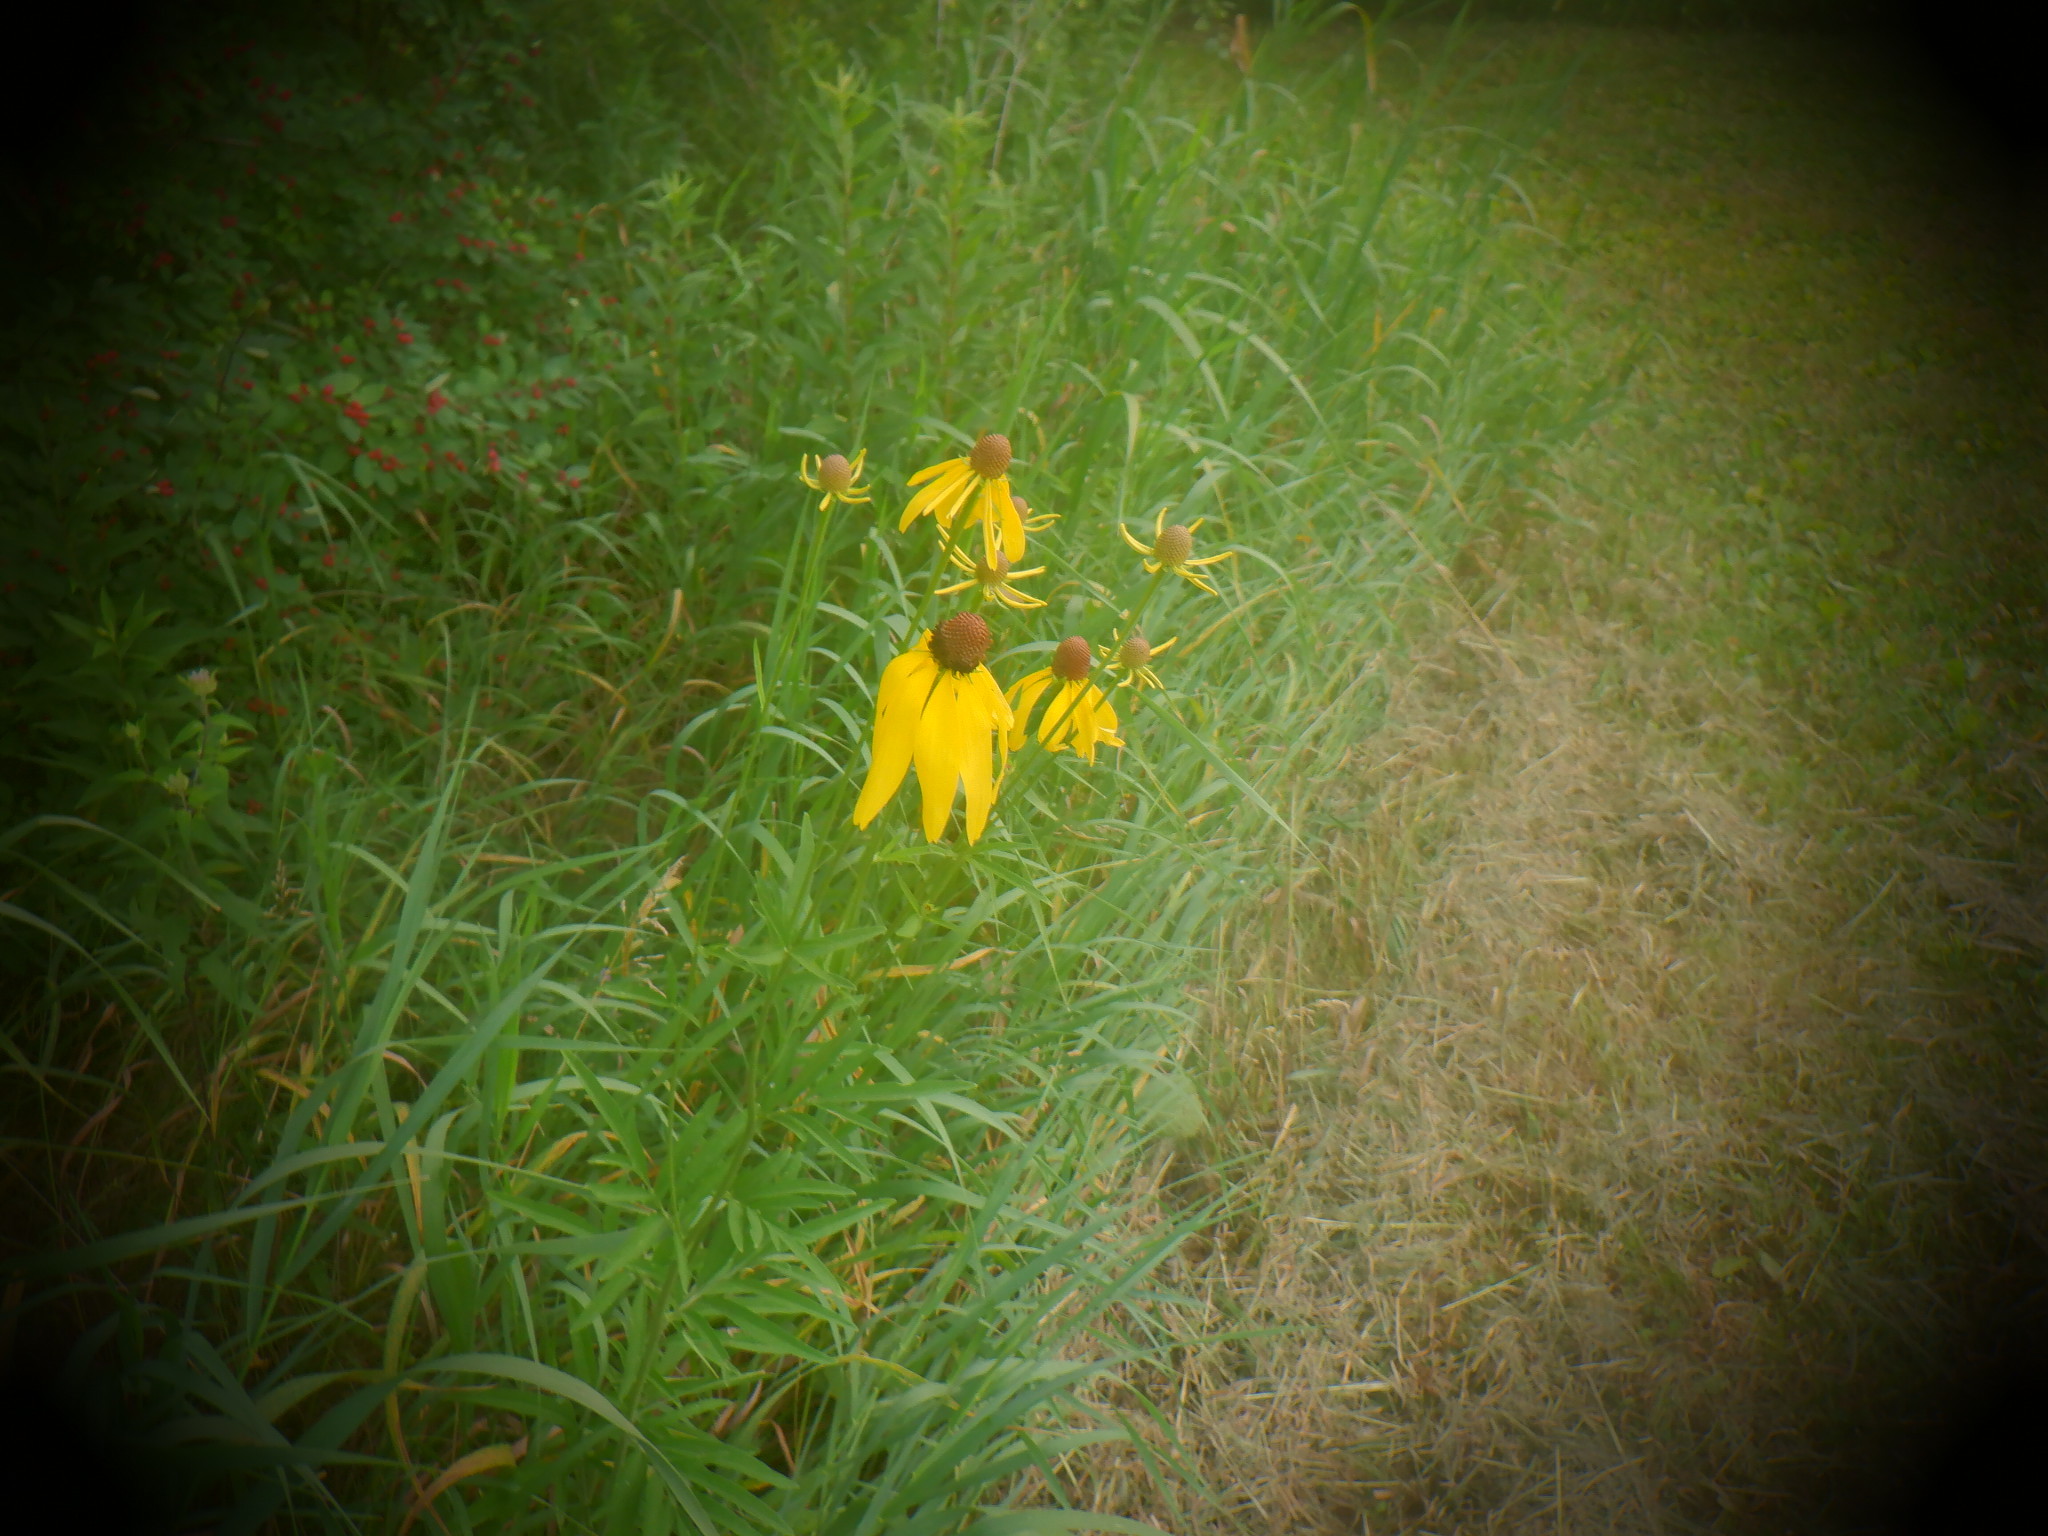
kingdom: Plantae
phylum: Tracheophyta
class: Magnoliopsida
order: Asterales
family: Asteraceae
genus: Ratibida
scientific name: Ratibida pinnata
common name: Drooping prairie-coneflower
